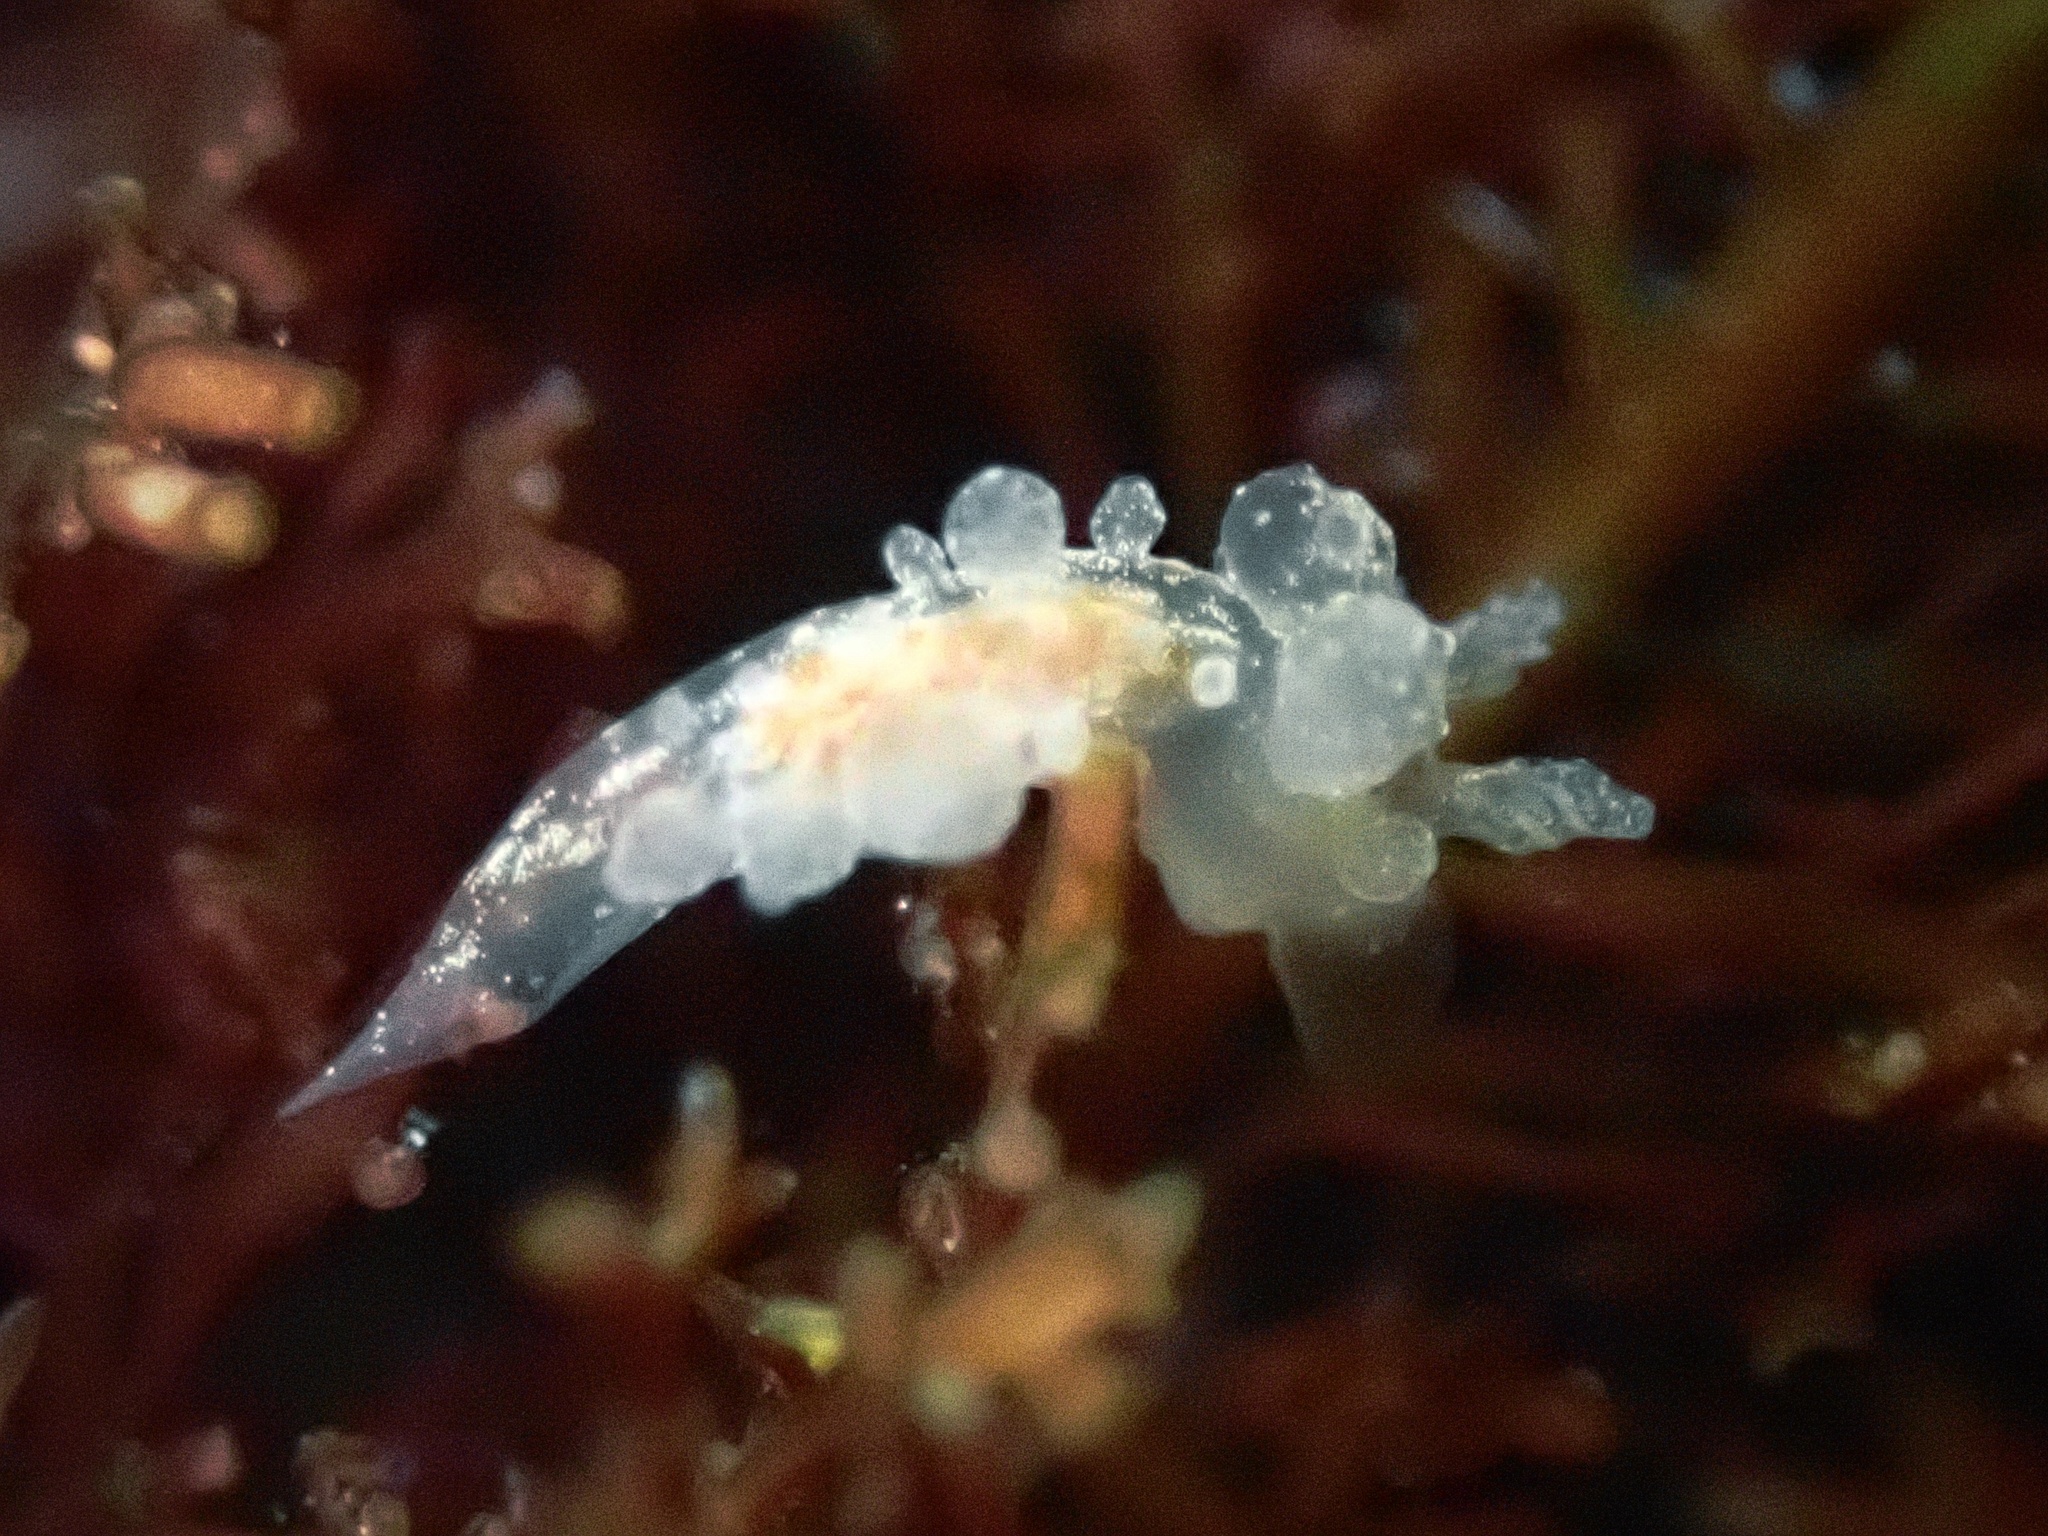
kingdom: Animalia
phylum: Mollusca
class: Gastropoda
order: Nudibranchia
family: Dironidae
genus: Dirona
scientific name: Dirona picta
